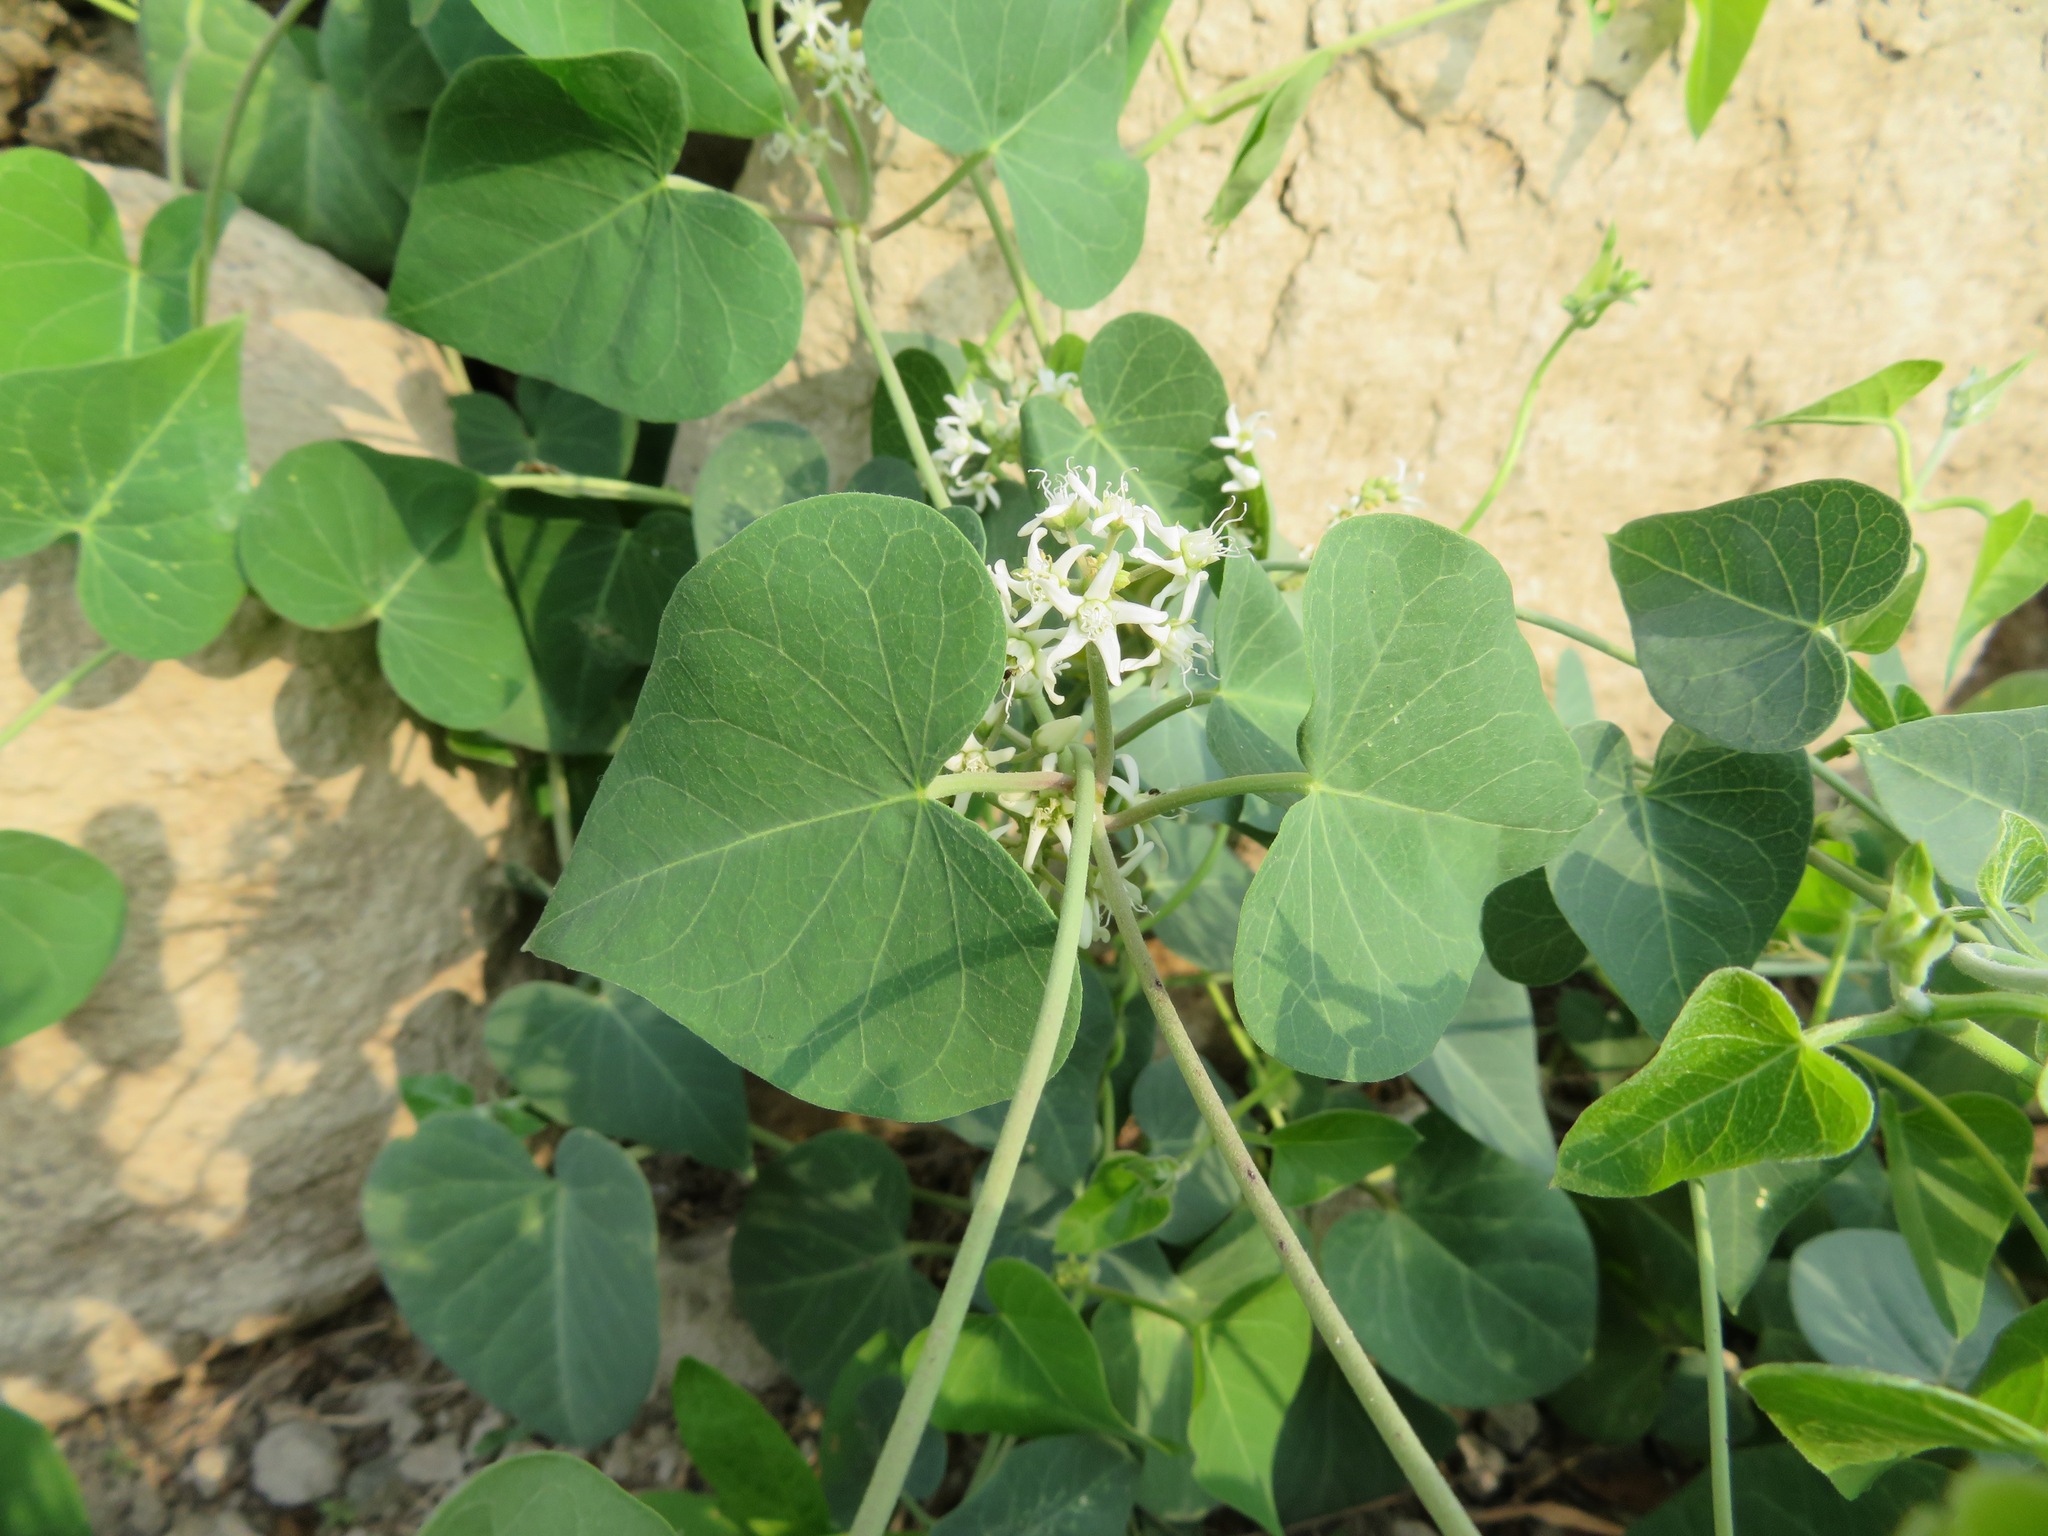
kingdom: Plantae
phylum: Tracheophyta
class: Magnoliopsida
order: Gentianales
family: Apocynaceae
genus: Vincetoxicum
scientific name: Vincetoxicum pubescens
